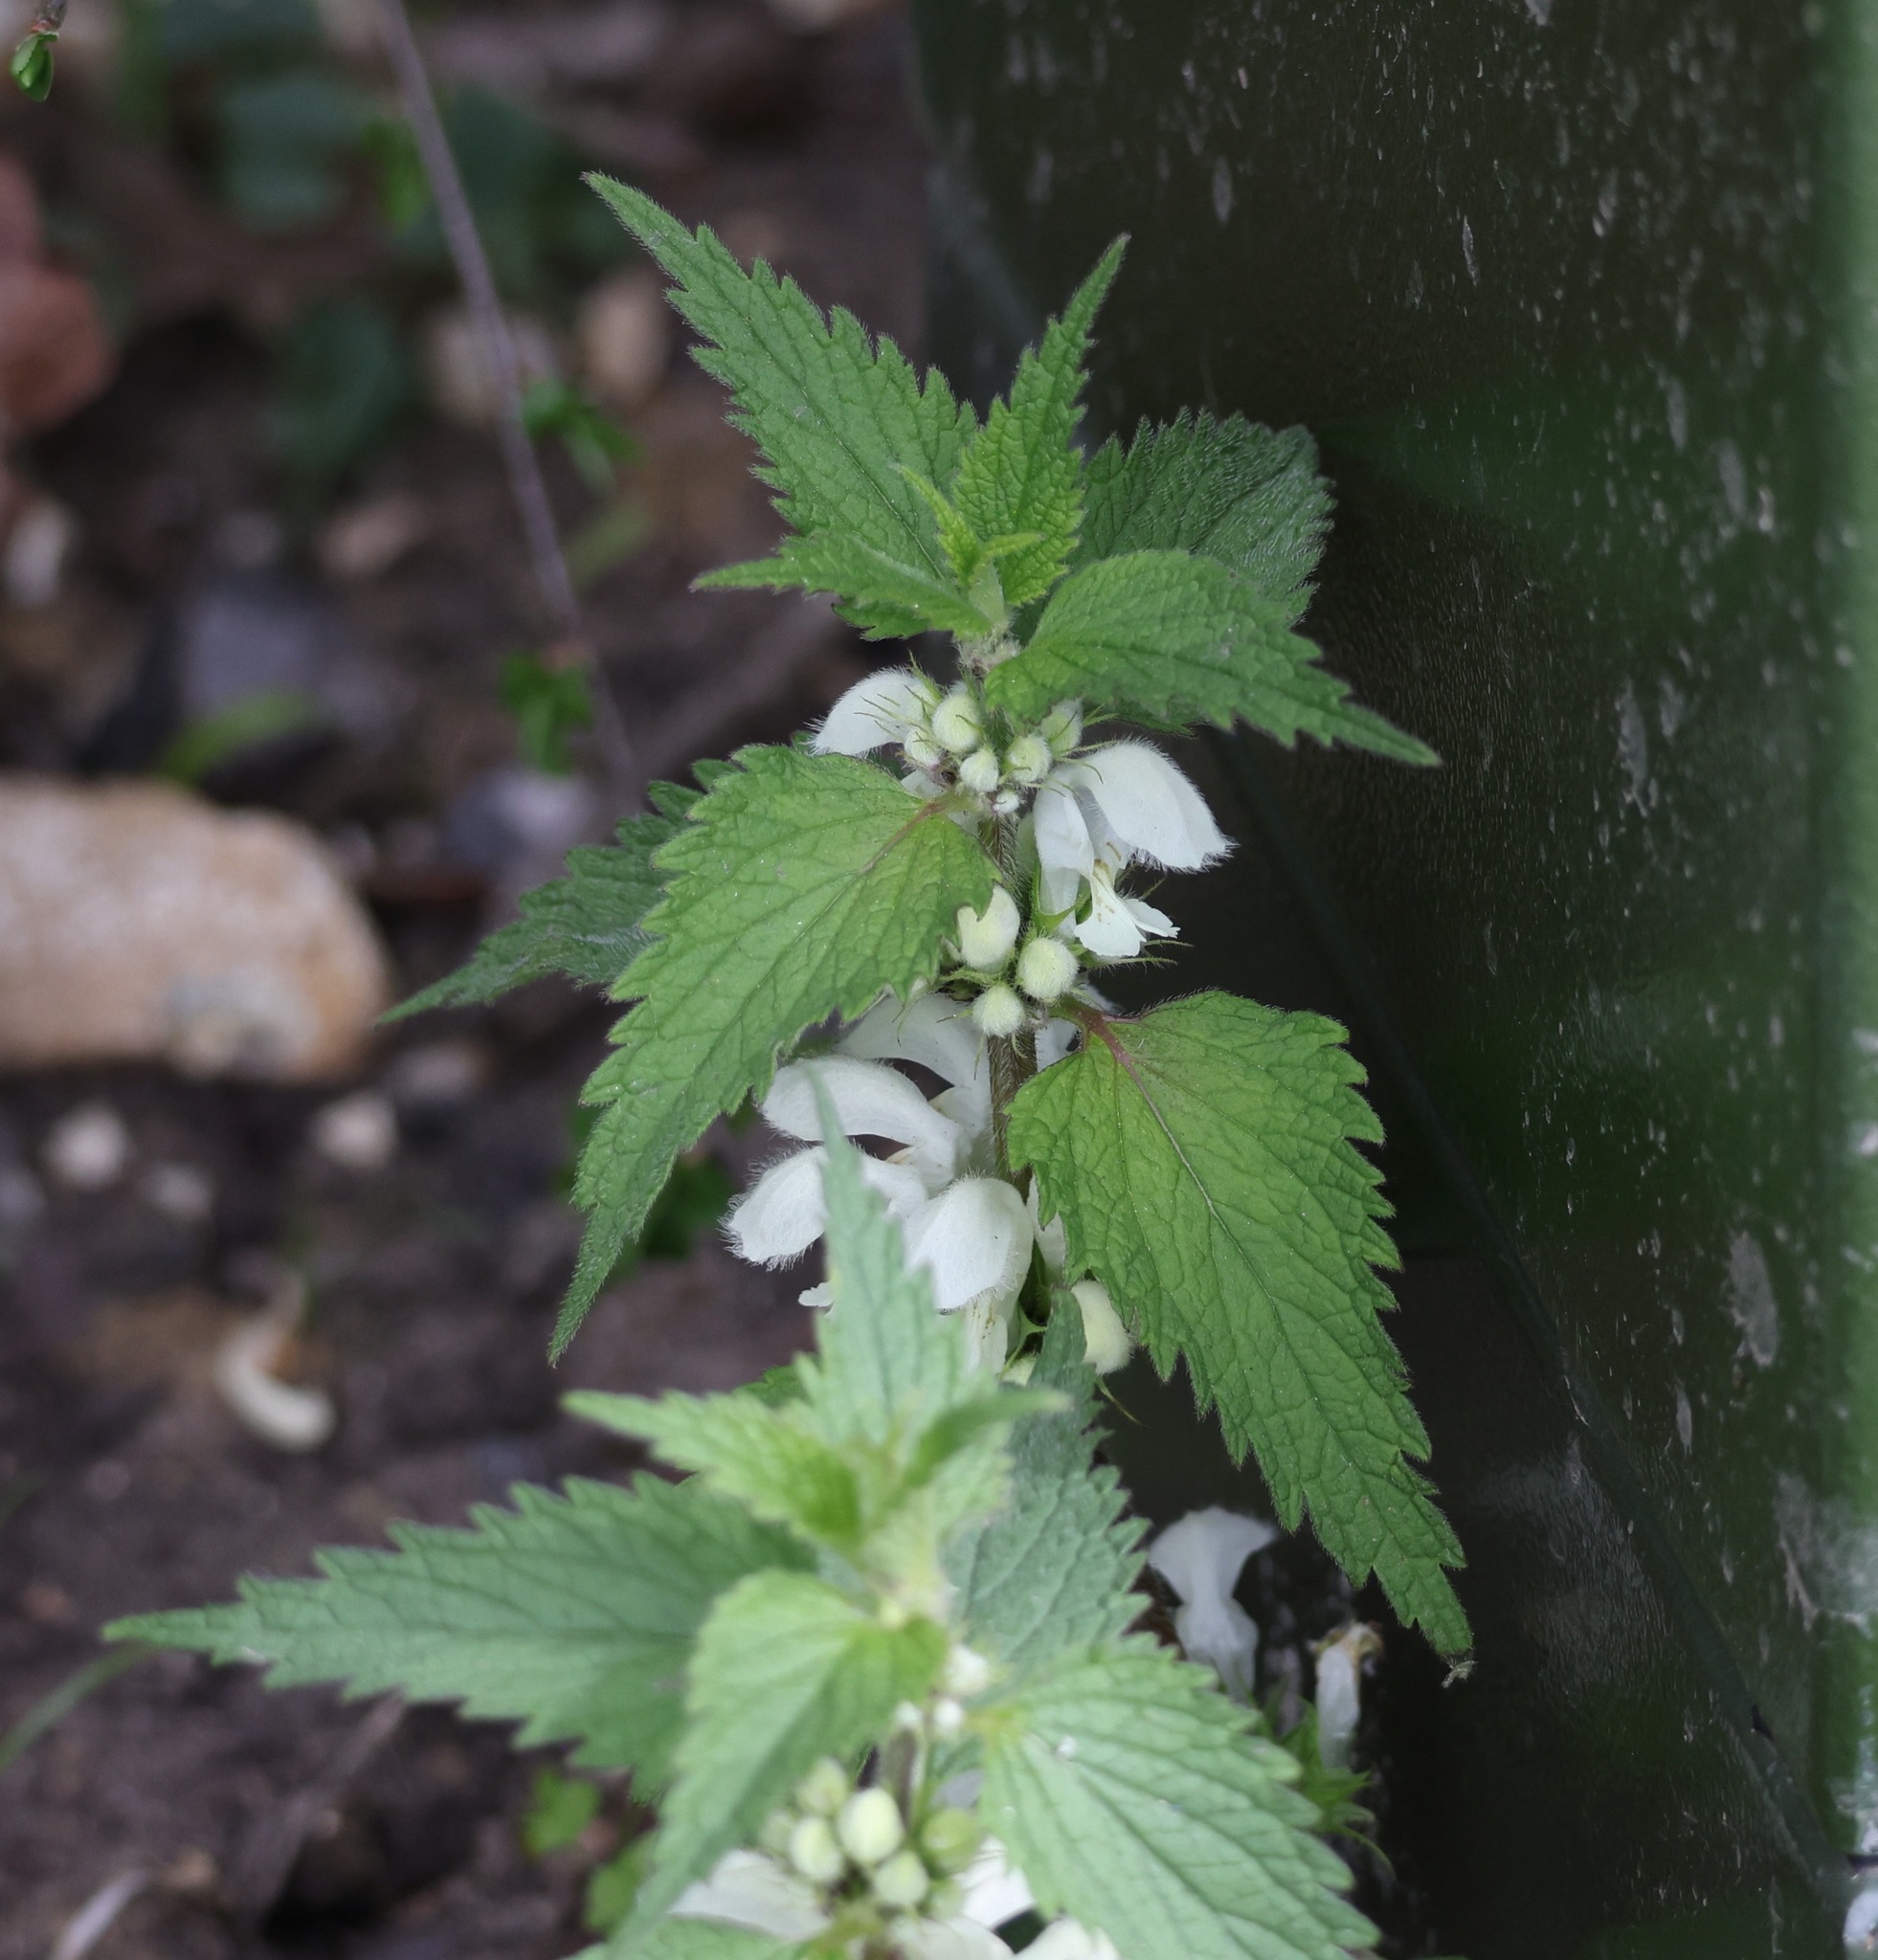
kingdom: Plantae
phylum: Tracheophyta
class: Magnoliopsida
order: Lamiales
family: Lamiaceae
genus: Lamium
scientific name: Lamium album
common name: White dead-nettle
